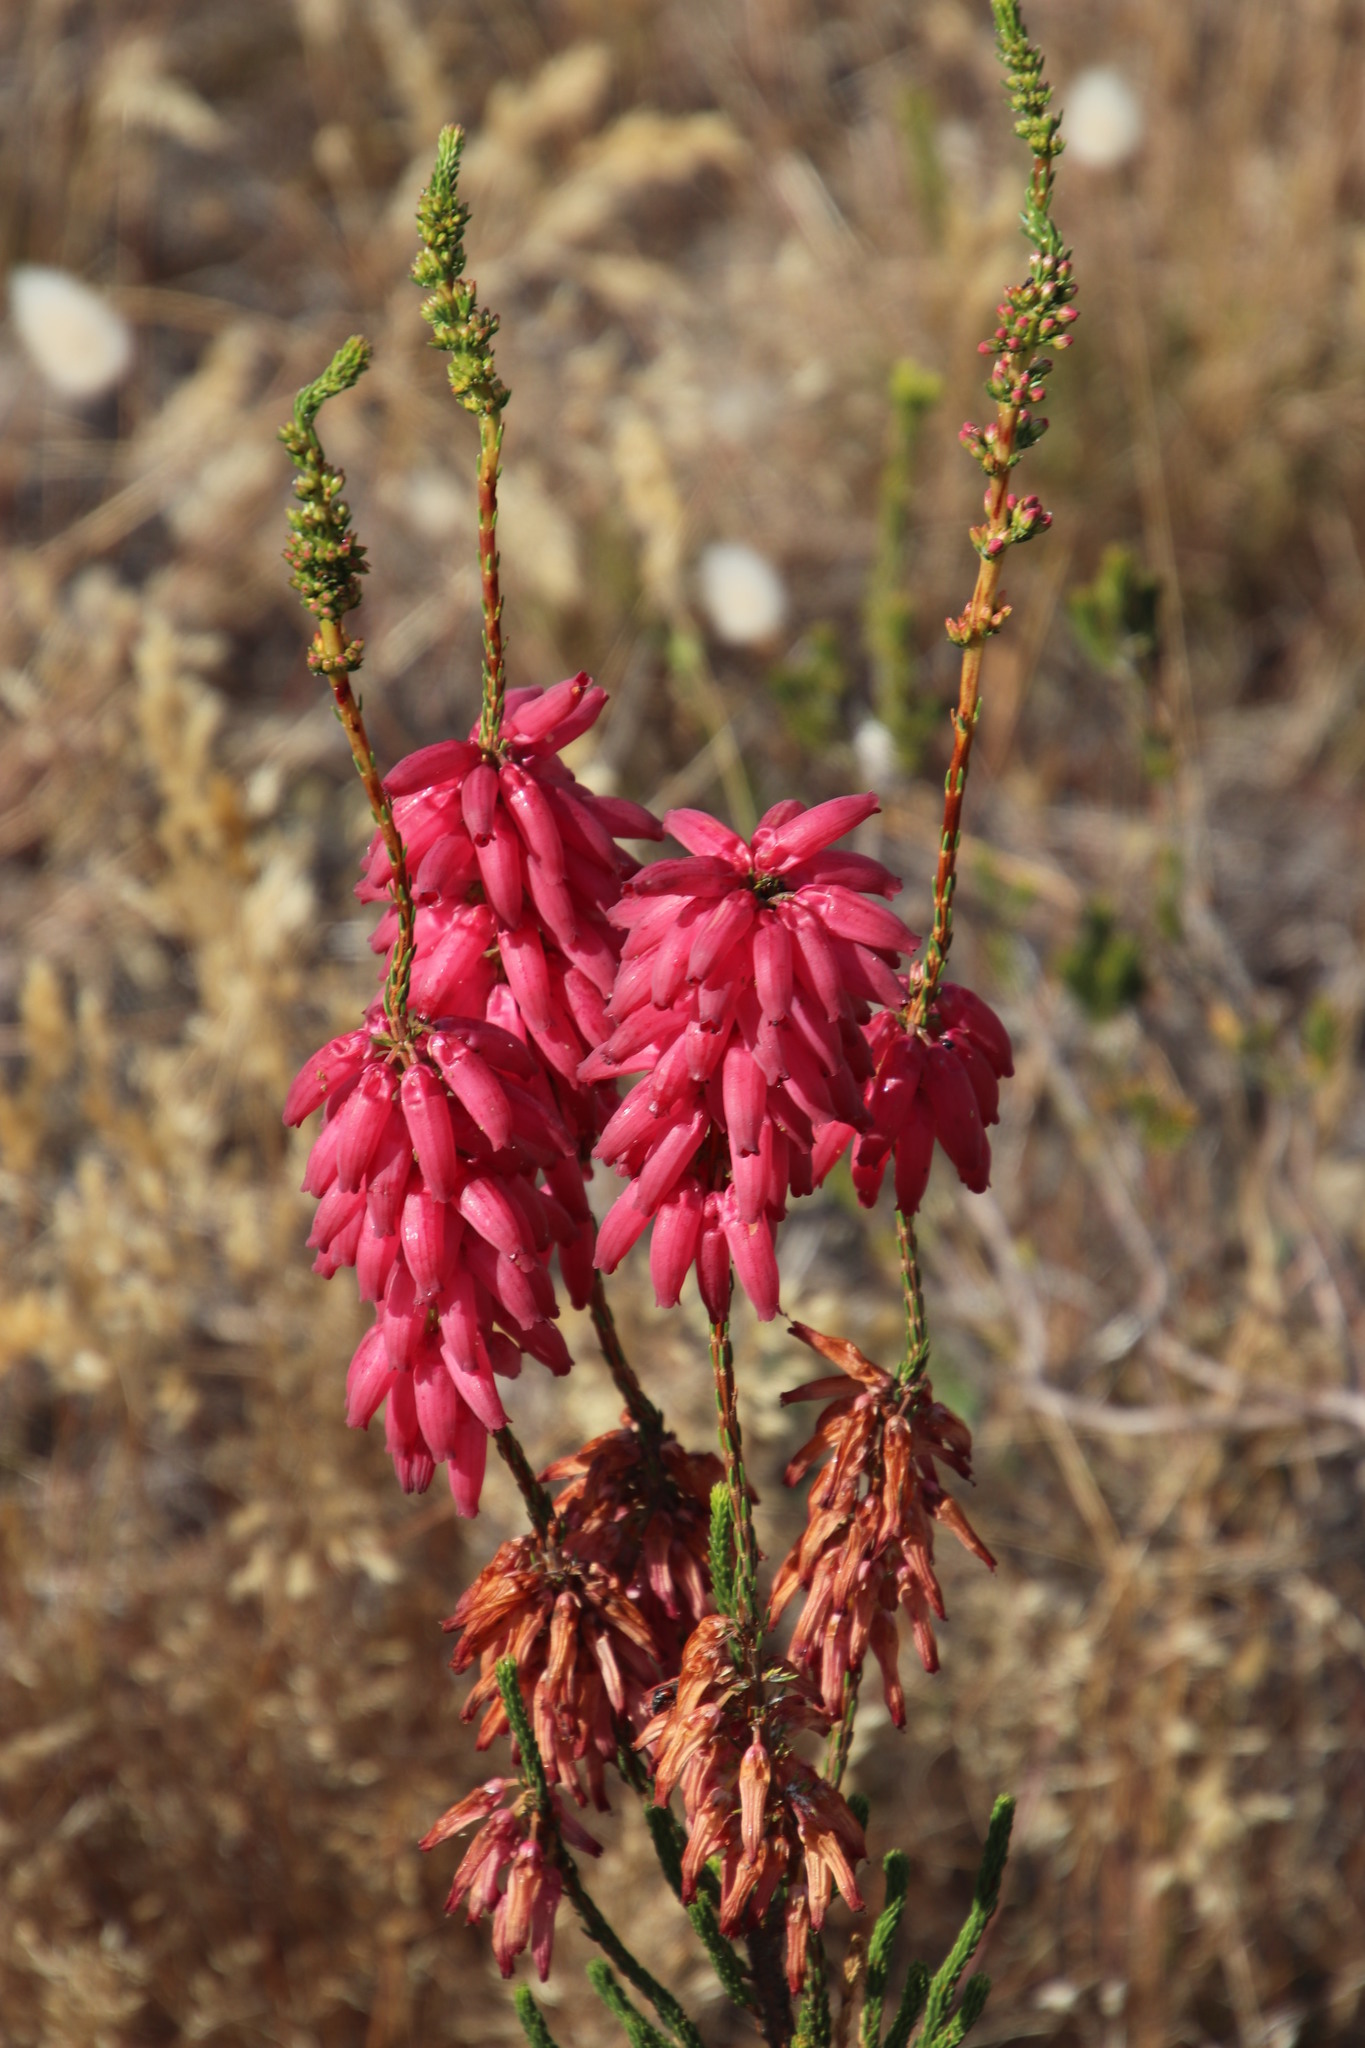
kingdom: Plantae
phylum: Tracheophyta
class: Magnoliopsida
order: Ericales
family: Ericaceae
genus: Erica
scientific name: Erica mammosa
